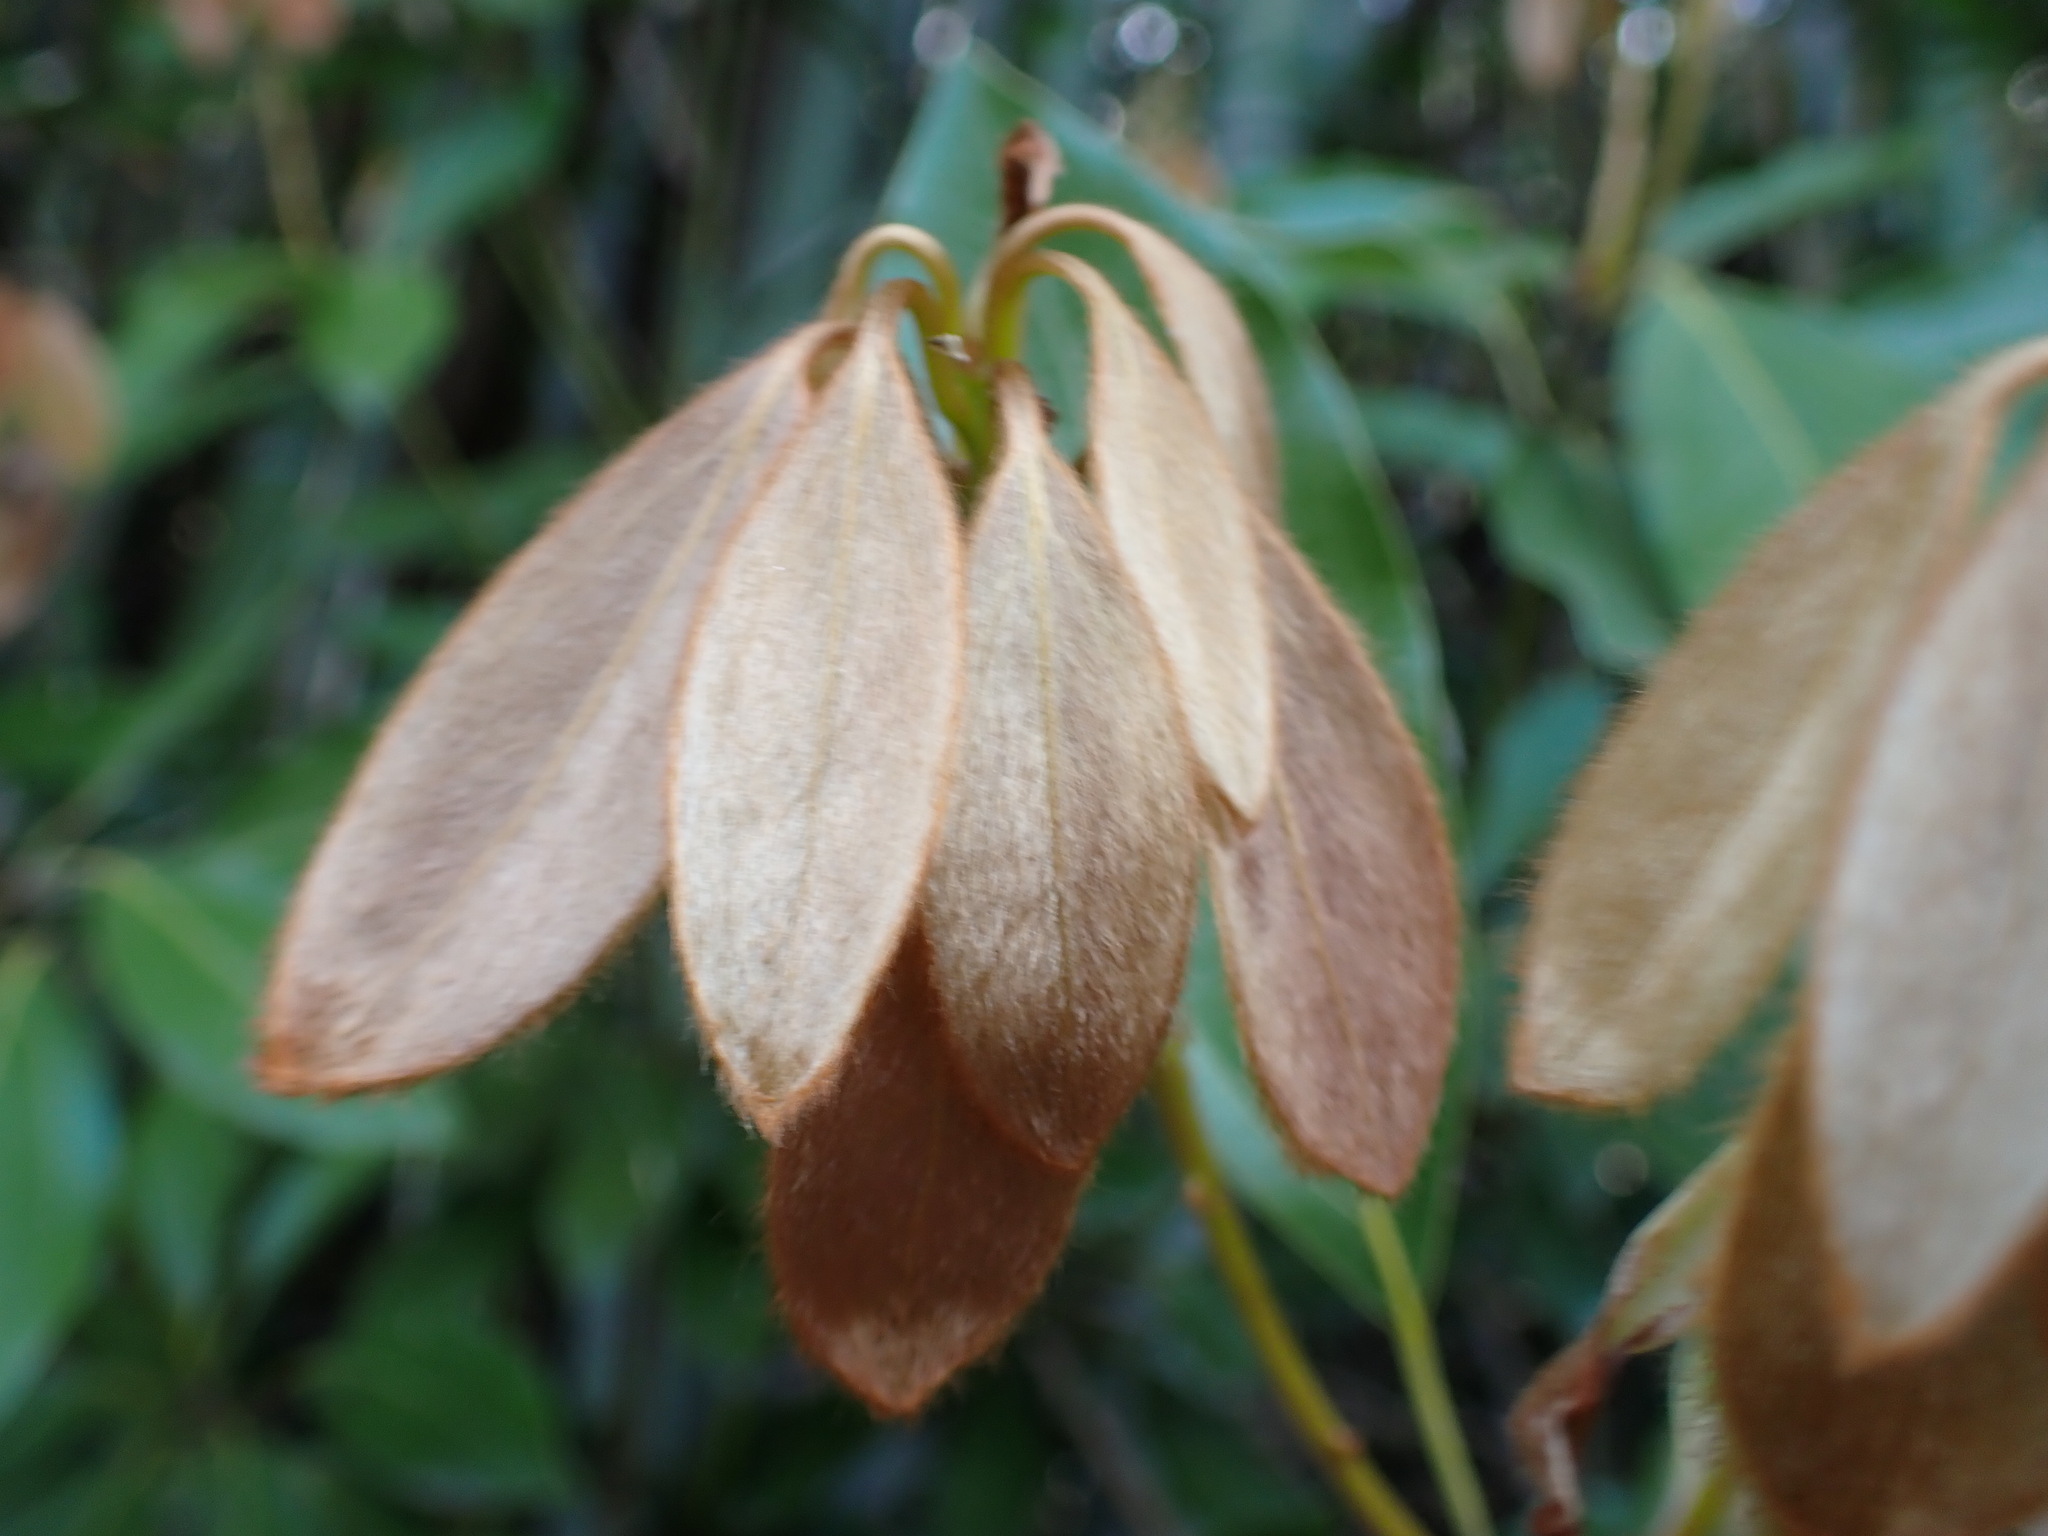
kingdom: Plantae
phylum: Tracheophyta
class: Magnoliopsida
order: Laurales
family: Lauraceae
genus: Neolitsea
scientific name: Neolitsea sericea
